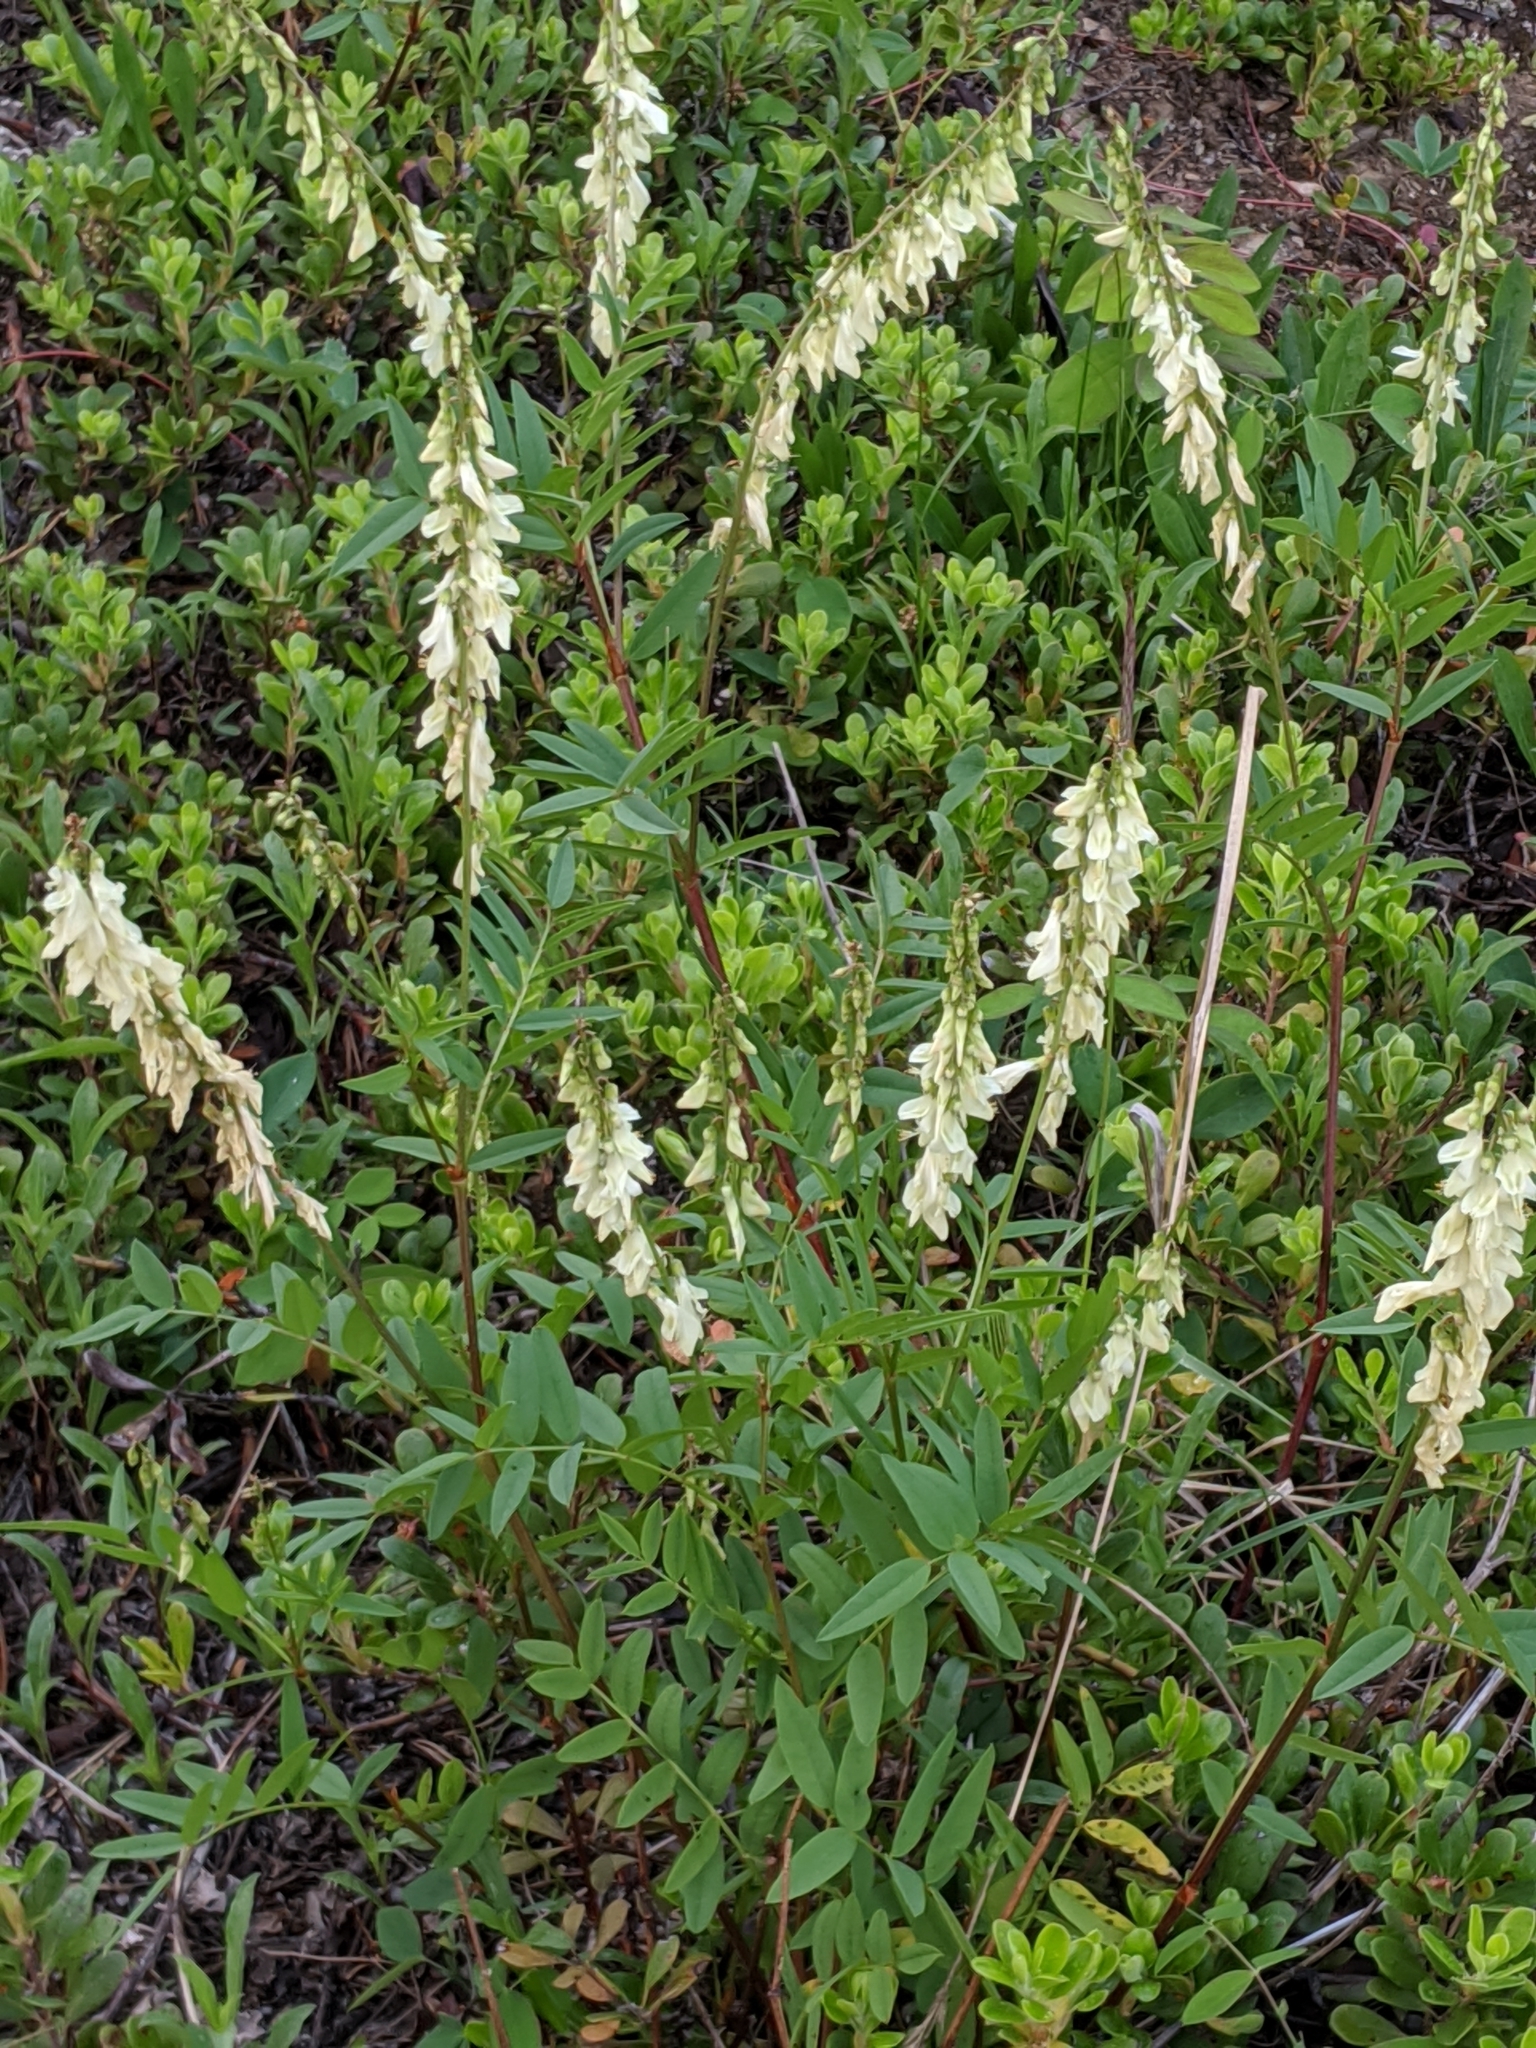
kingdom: Plantae
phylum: Tracheophyta
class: Magnoliopsida
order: Fabales
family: Fabaceae
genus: Hedysarum
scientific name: Hedysarum sulphurescens
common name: Sulphur hedysarum
